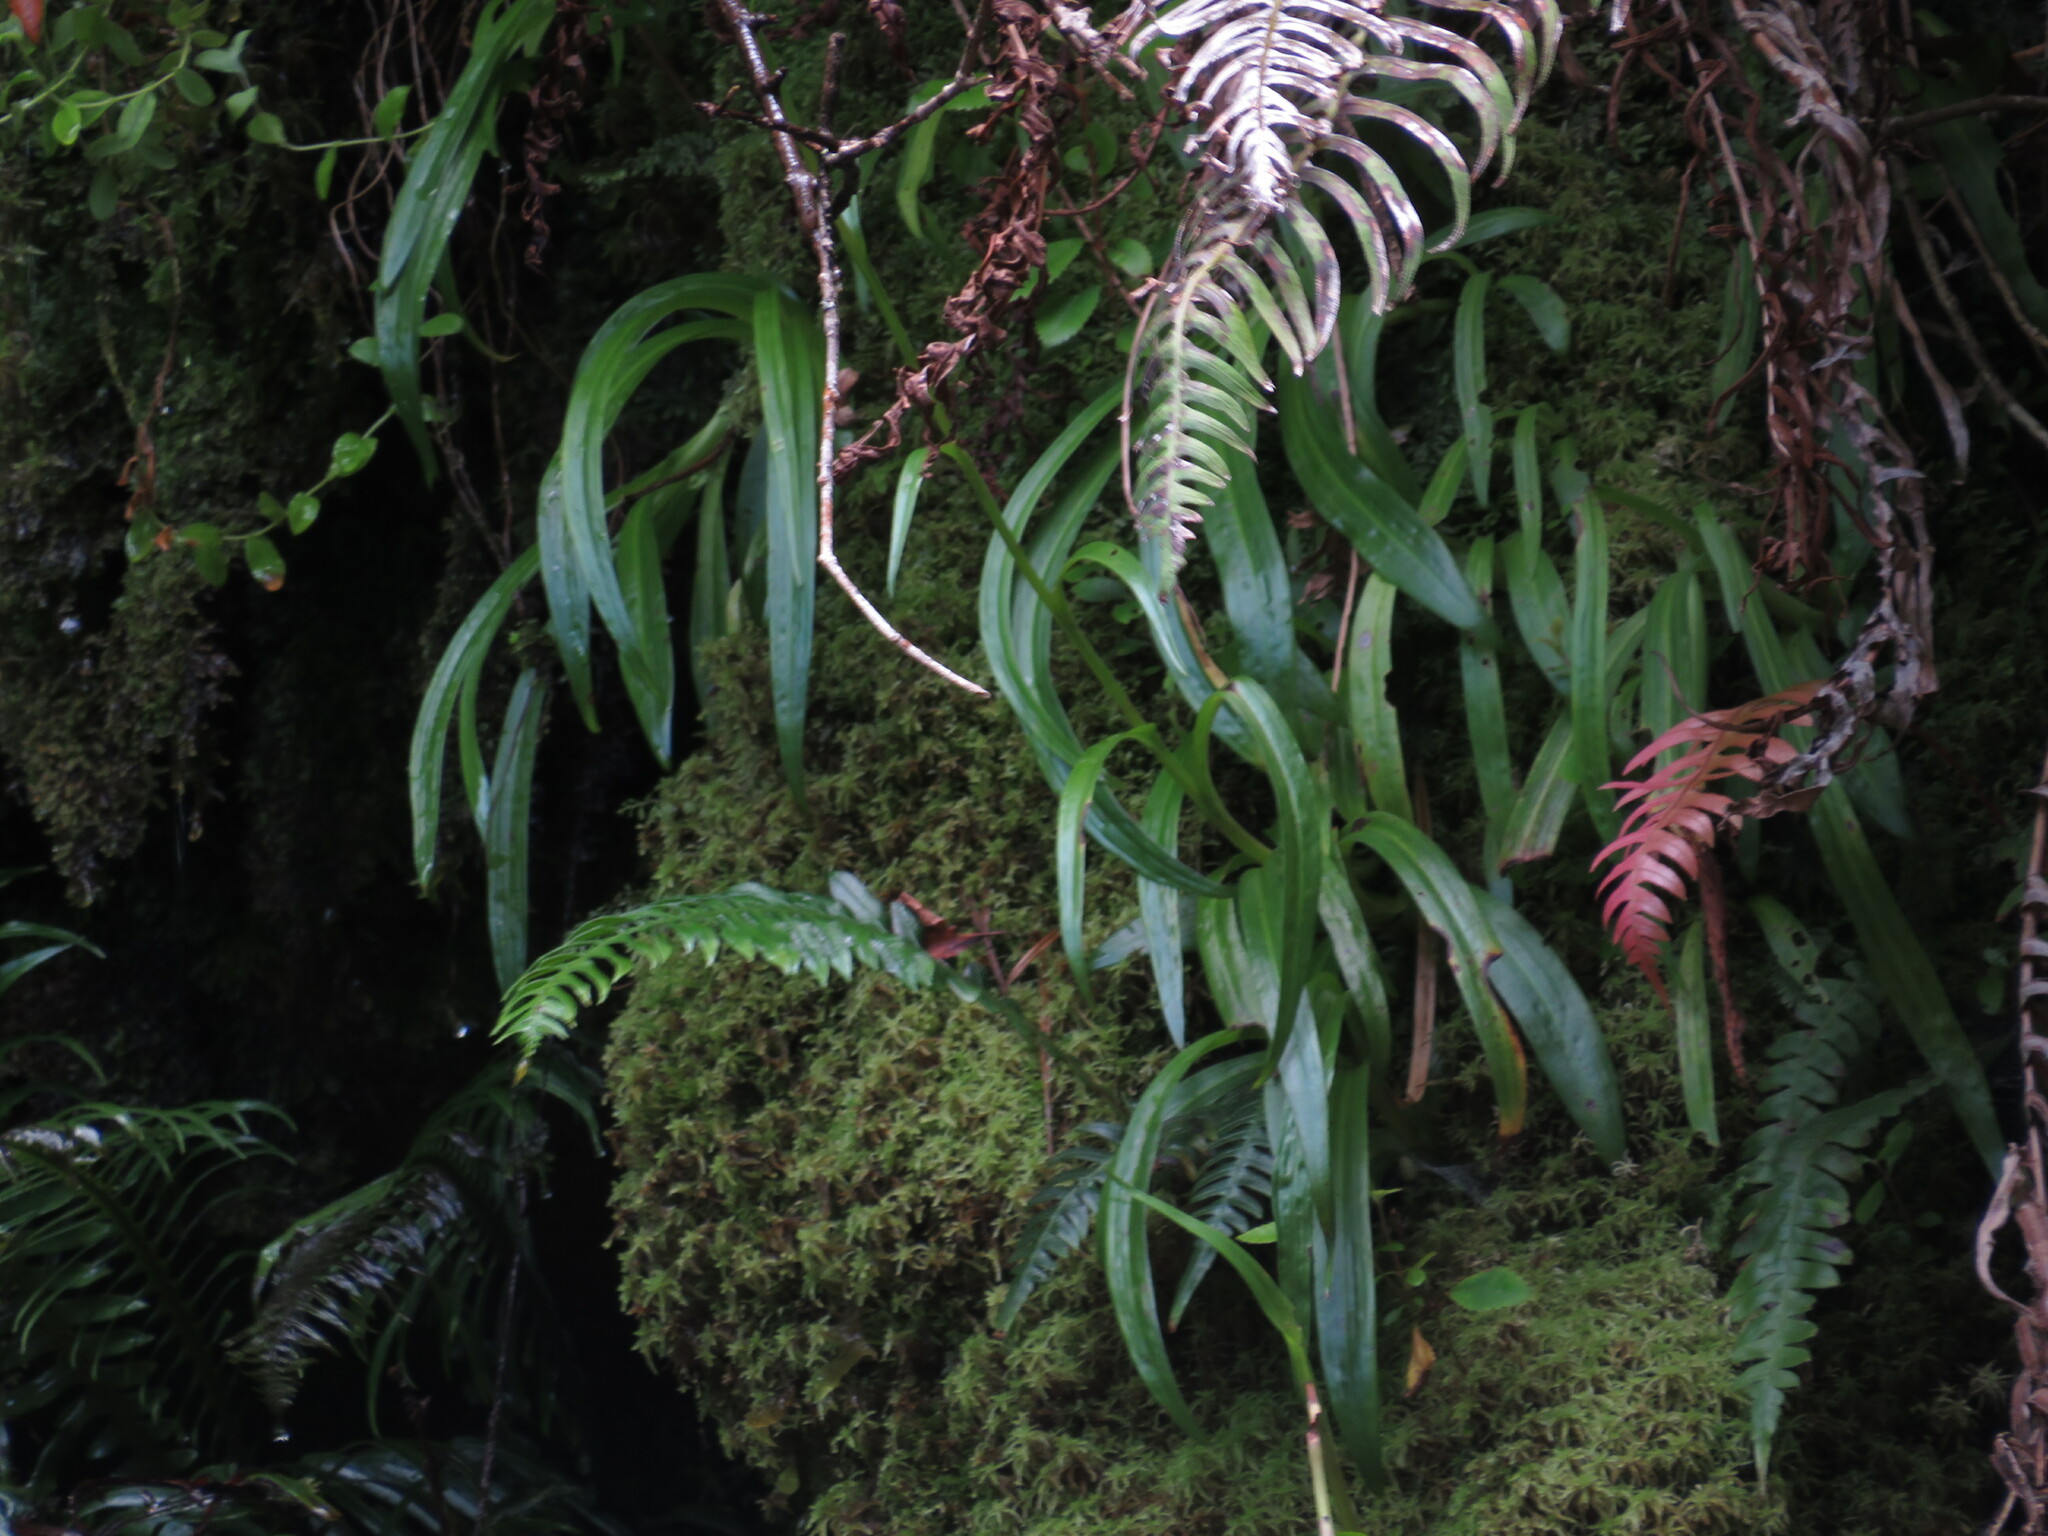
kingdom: Plantae
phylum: Tracheophyta
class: Liliopsida
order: Asparagales
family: Orchidaceae
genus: Disa
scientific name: Disa uniflora
